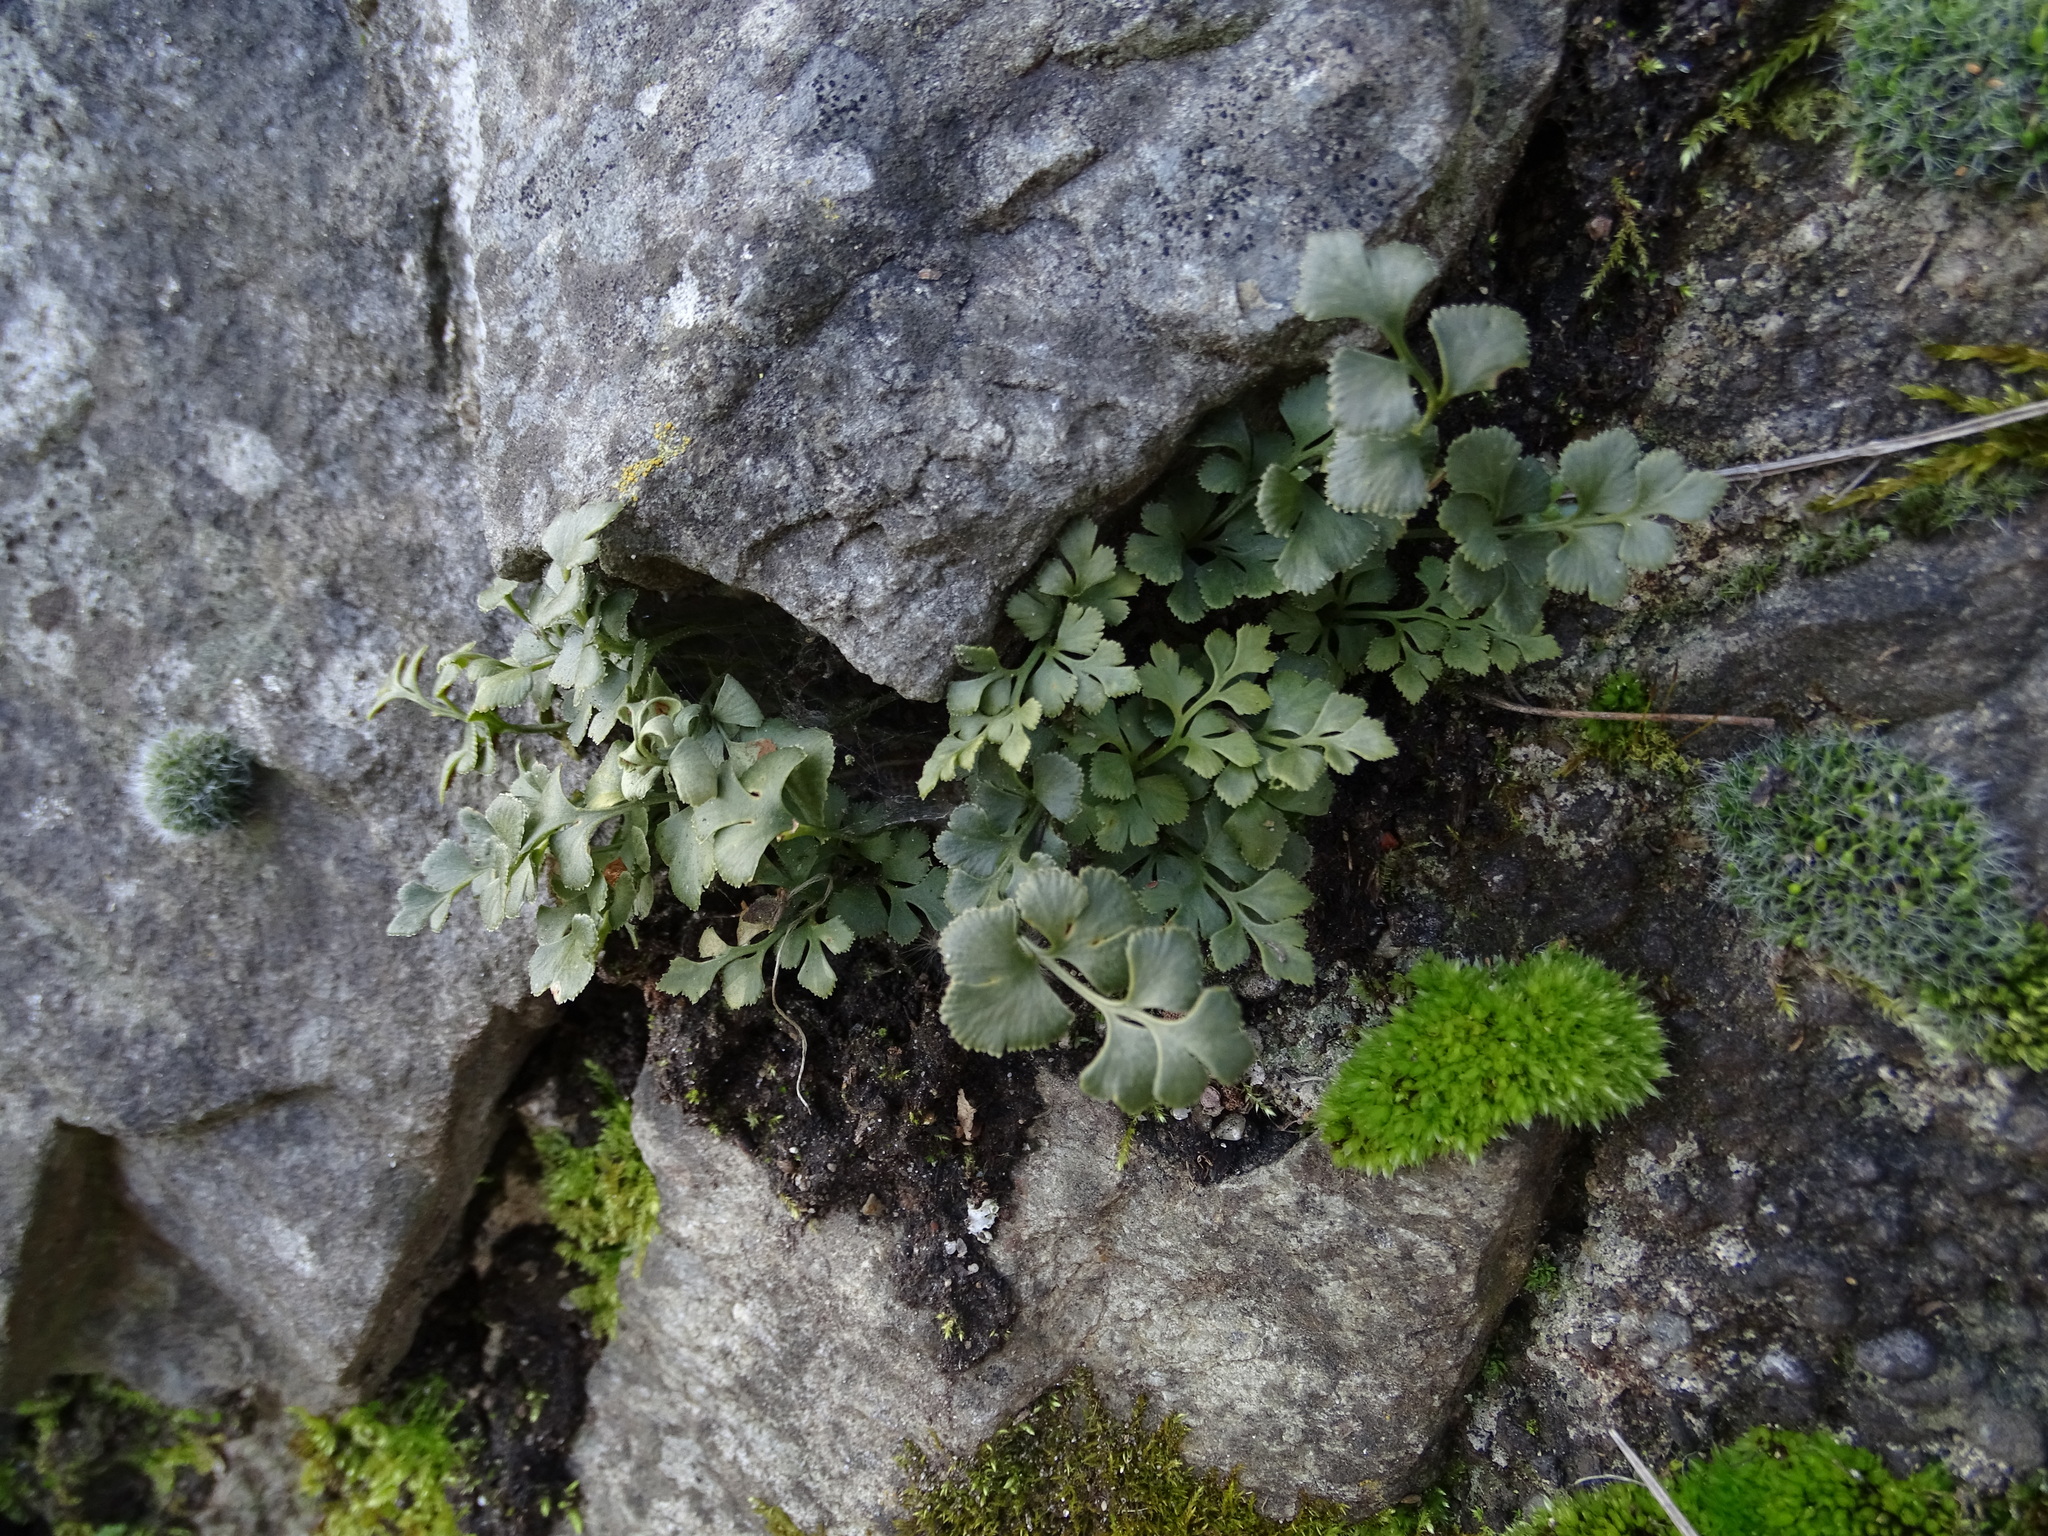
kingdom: Plantae
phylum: Tracheophyta
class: Polypodiopsida
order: Polypodiales
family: Aspleniaceae
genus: Asplenium
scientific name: Asplenium ruta-muraria
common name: Wall-rue
